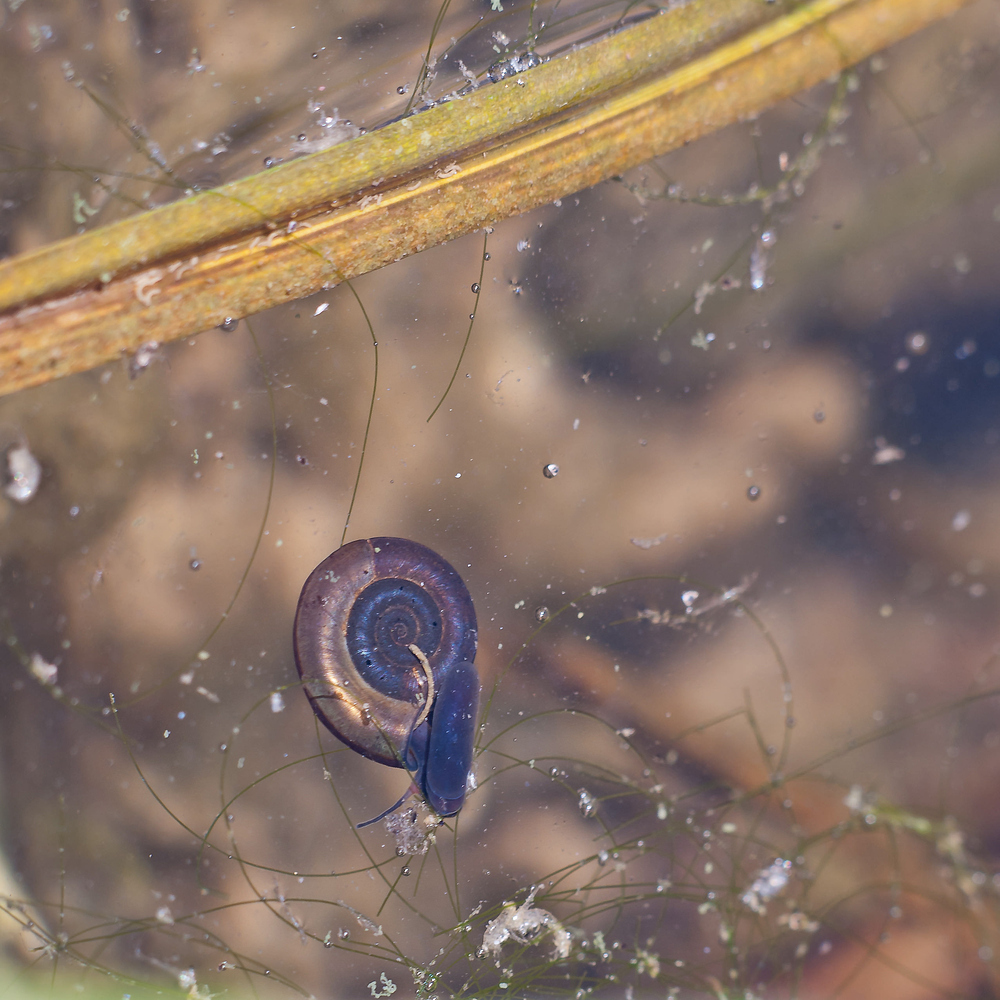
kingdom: Animalia
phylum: Mollusca
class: Gastropoda
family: Planorbidae
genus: Planorbis
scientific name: Planorbis planorbis
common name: Margined ramshorn
